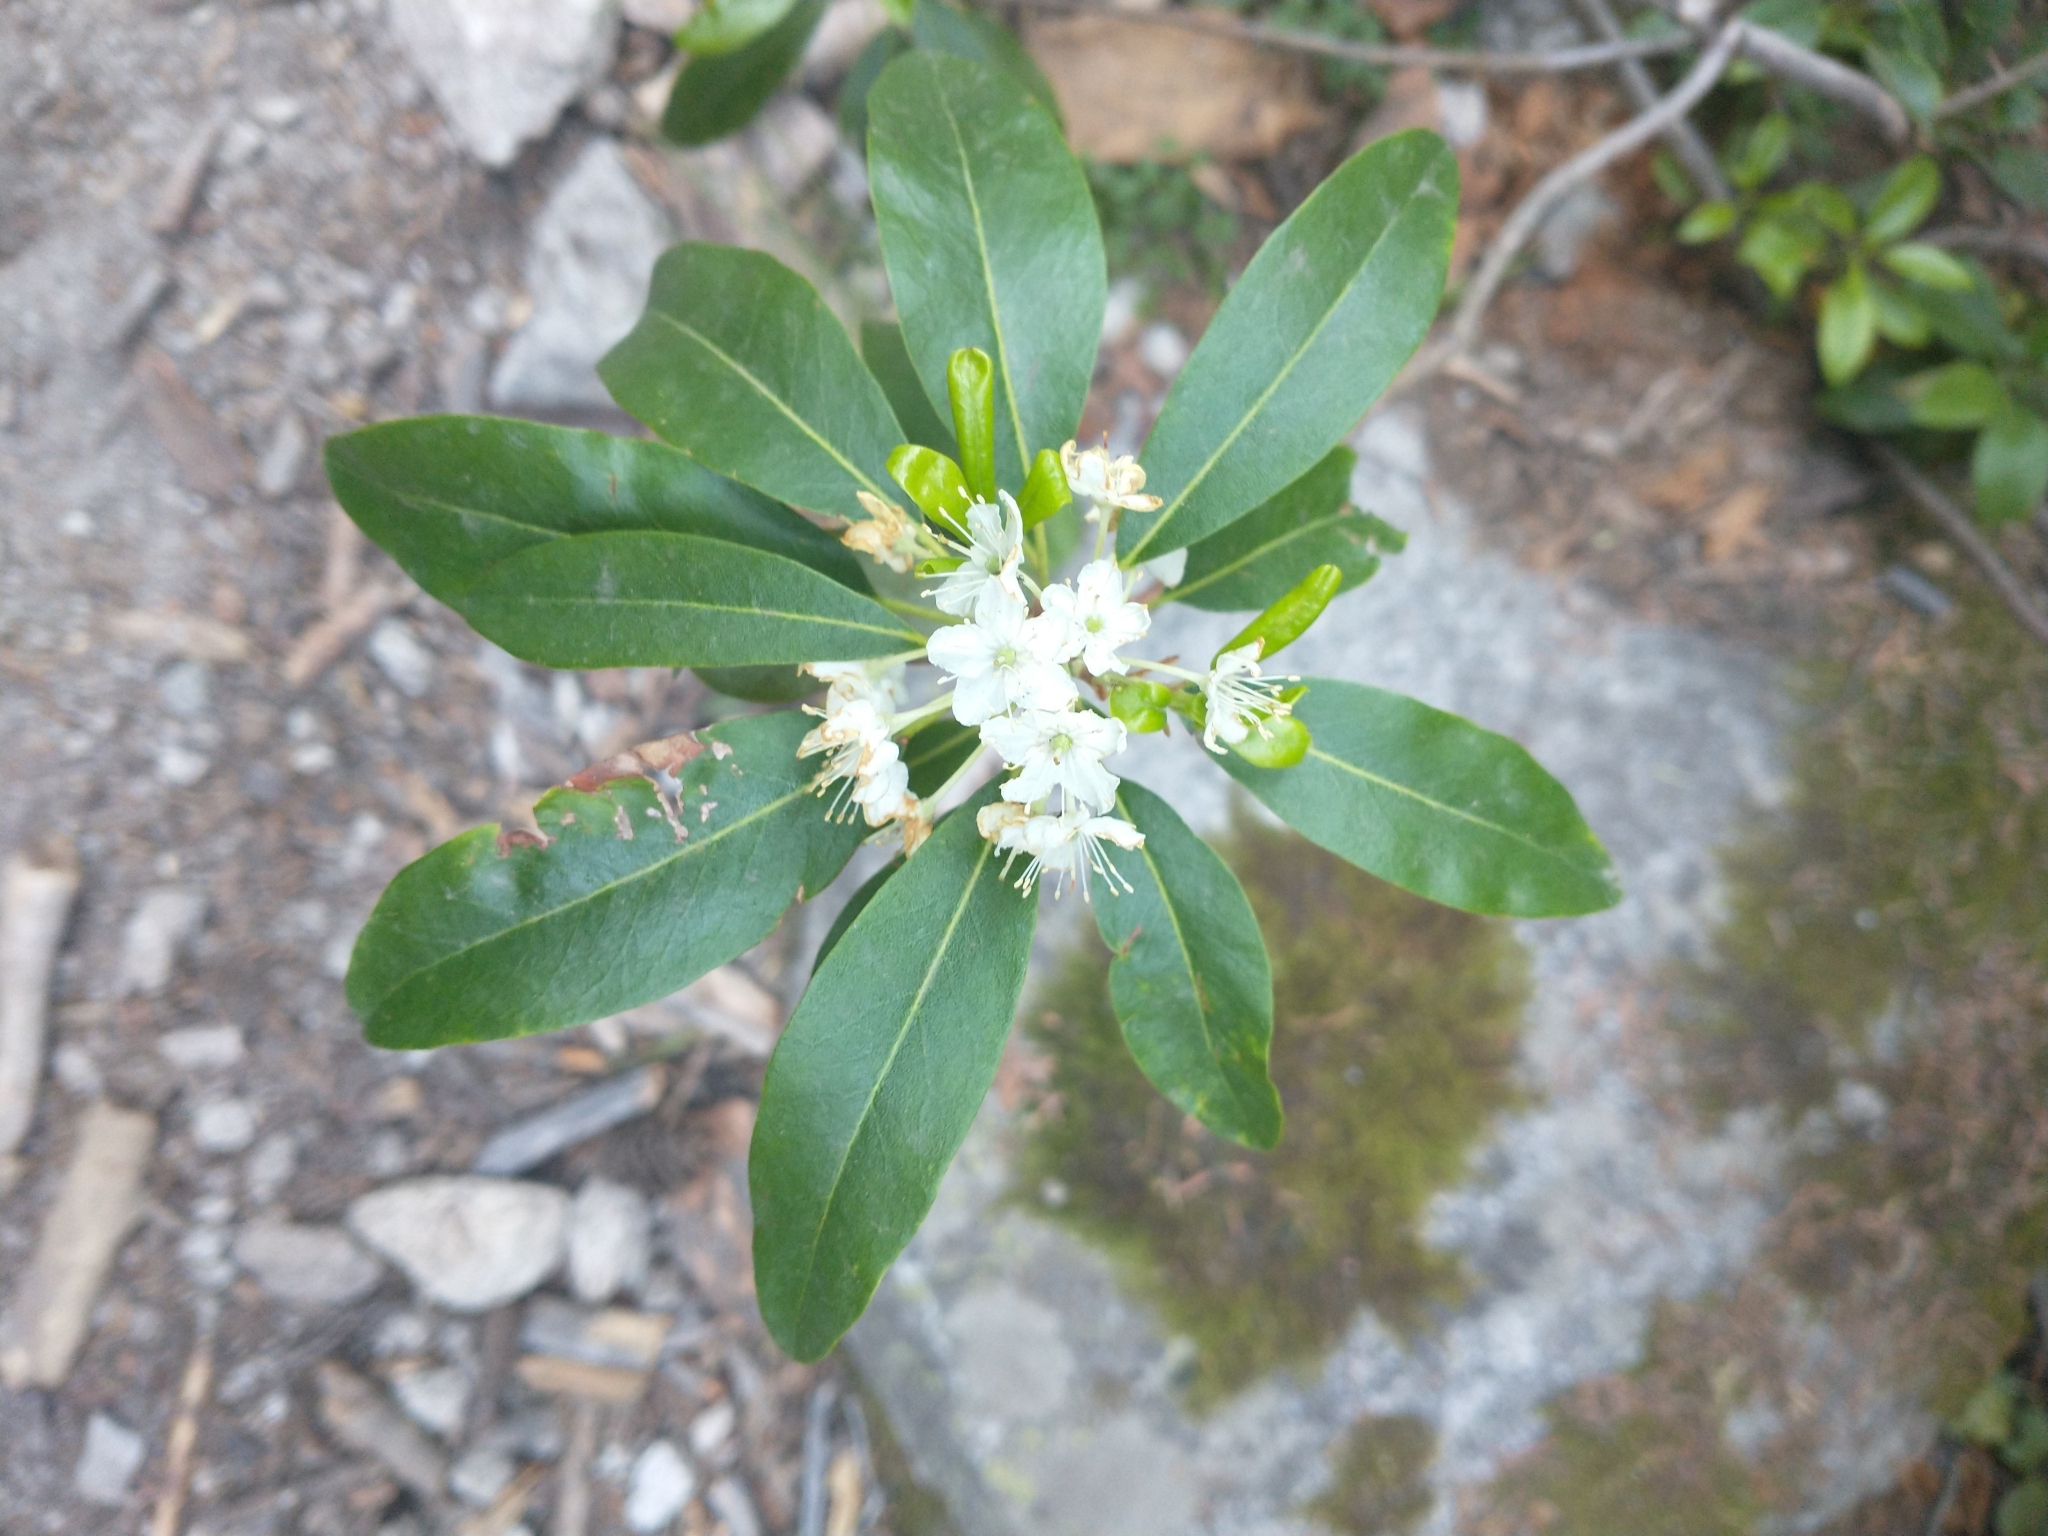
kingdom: Plantae
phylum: Tracheophyta
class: Magnoliopsida
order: Ericales
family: Ericaceae
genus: Rhododendron
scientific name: Rhododendron columbianum
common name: Western labrador tea
